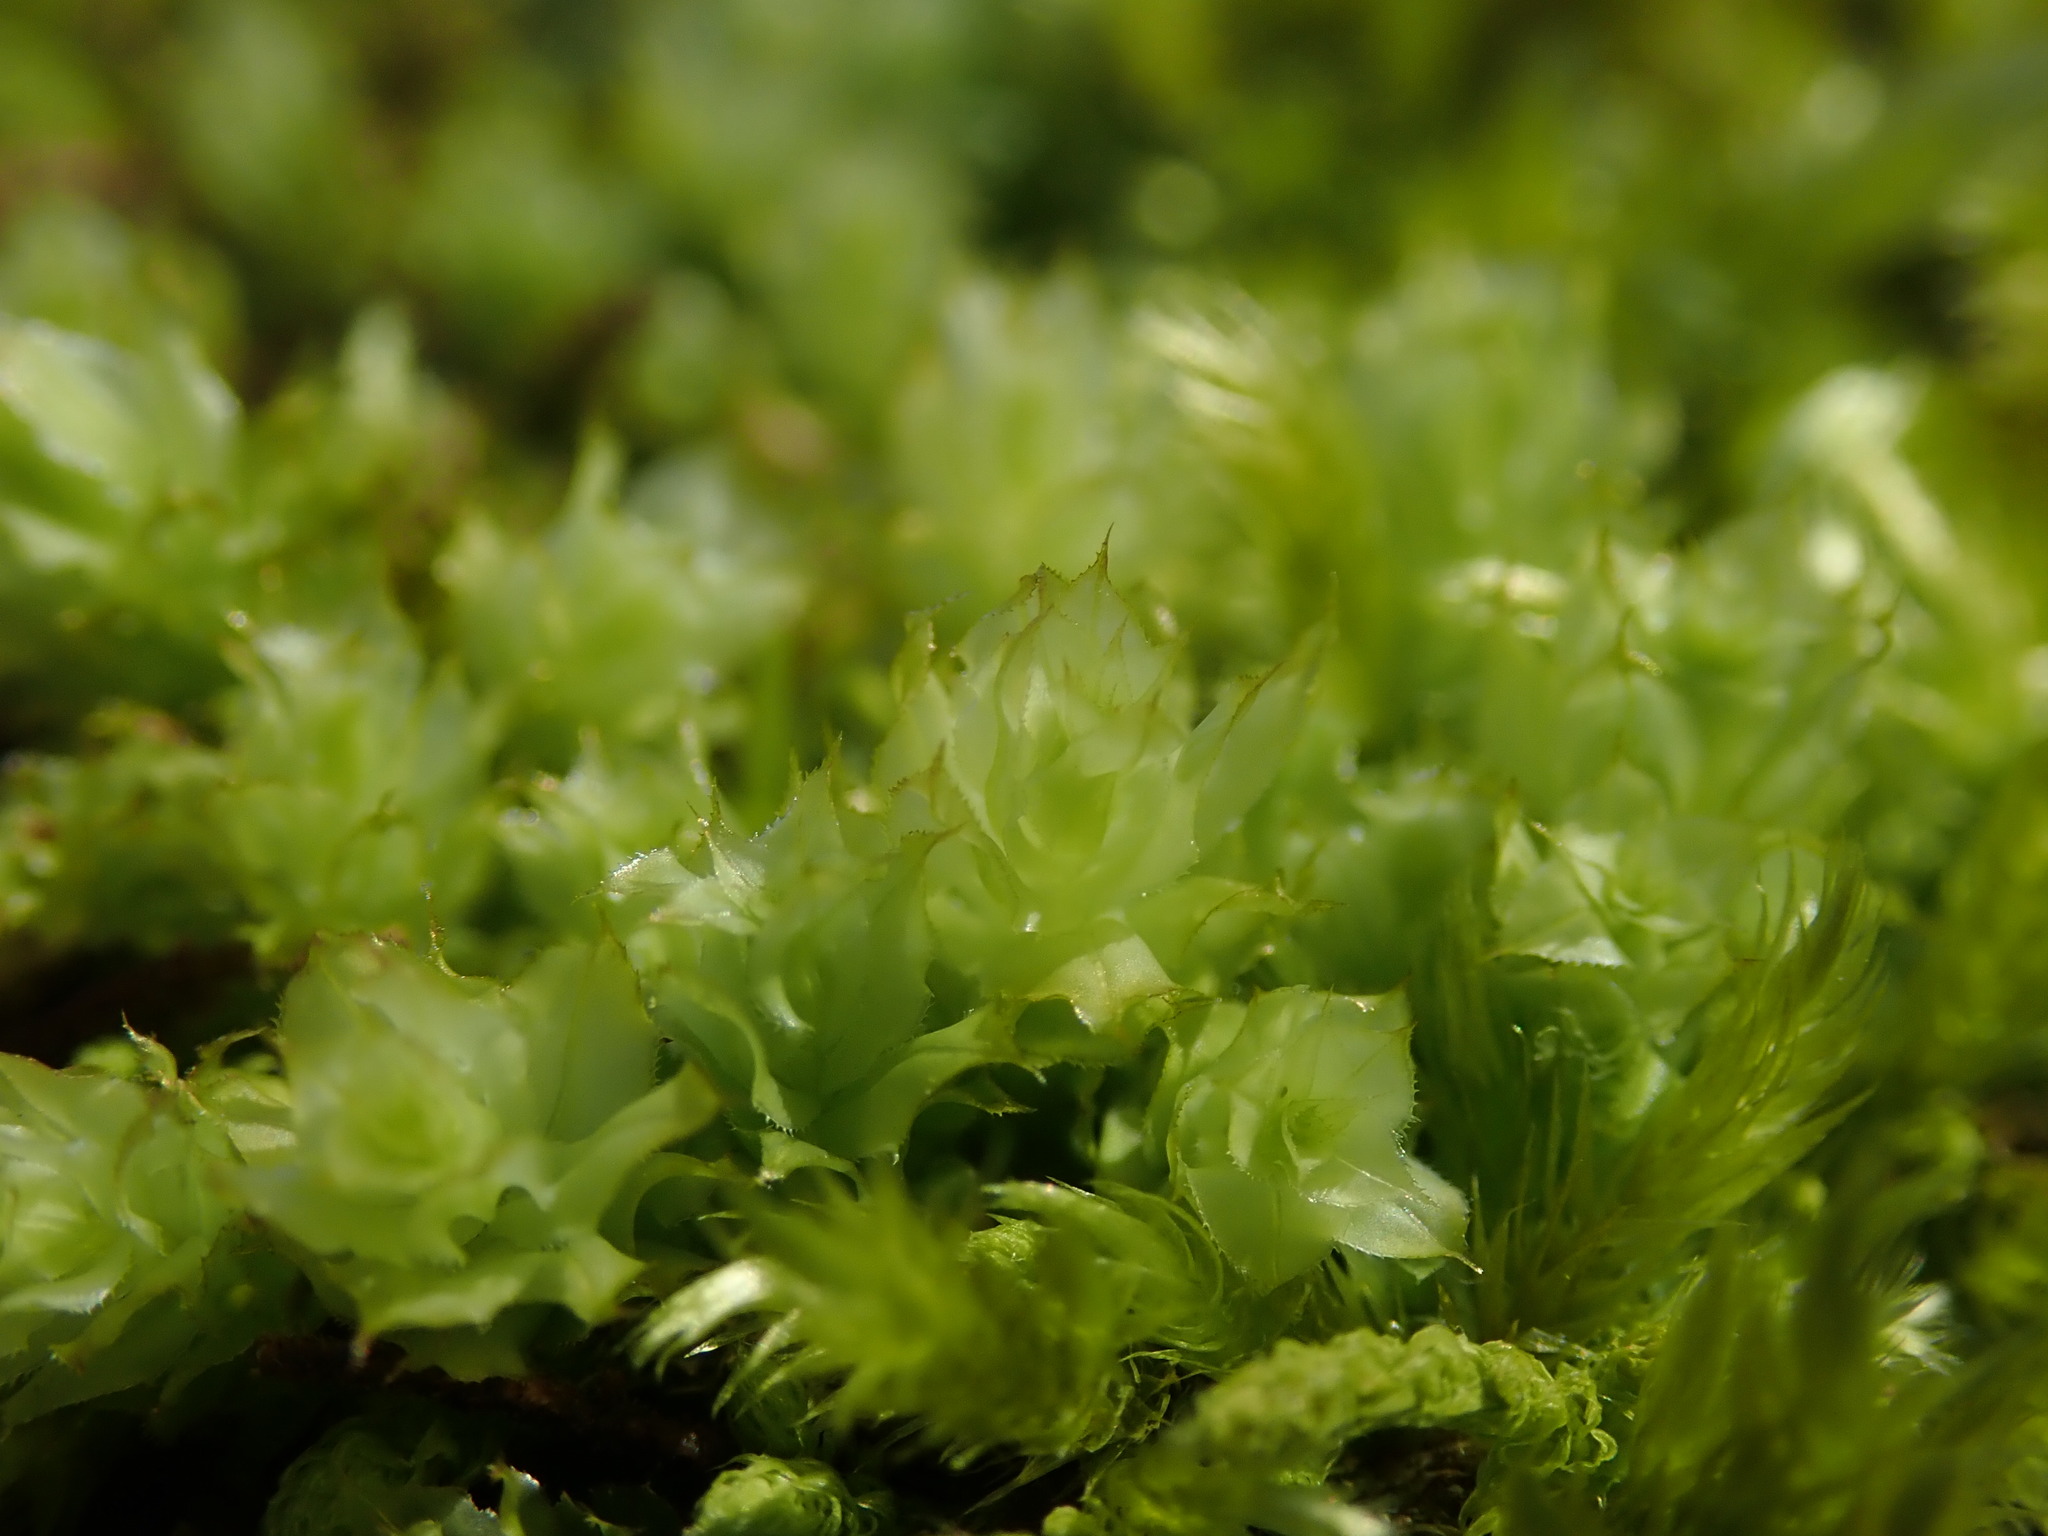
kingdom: Plantae
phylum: Bryophyta
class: Bryopsida
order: Bryales
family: Mniaceae
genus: Plagiomnium
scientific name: Plagiomnium venustum
